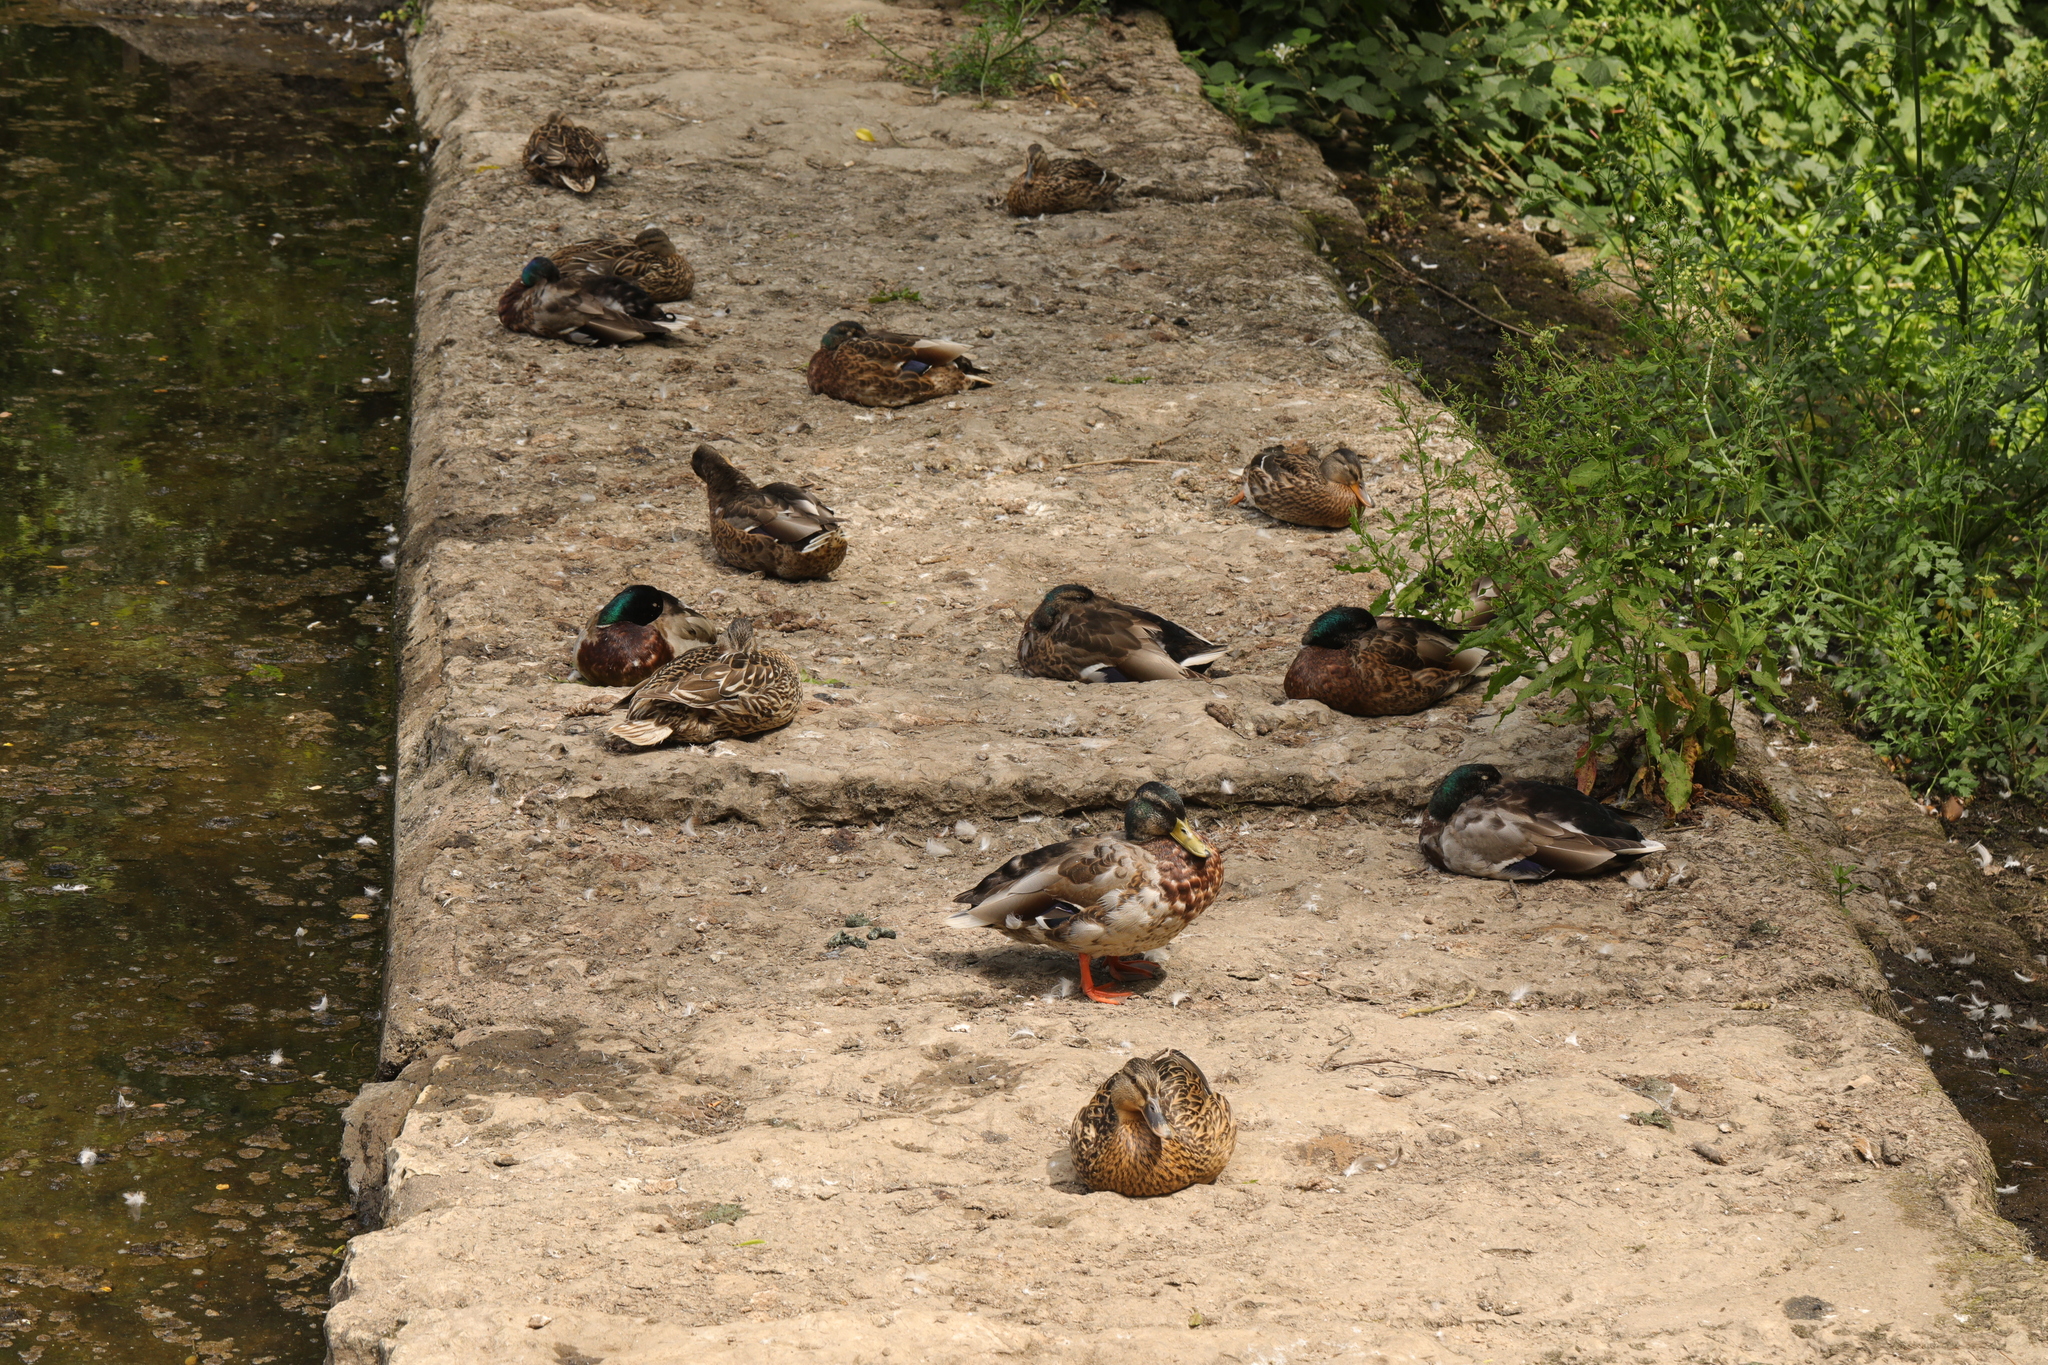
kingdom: Animalia
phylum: Chordata
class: Aves
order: Anseriformes
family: Anatidae
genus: Anas
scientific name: Anas platyrhynchos
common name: Mallard
